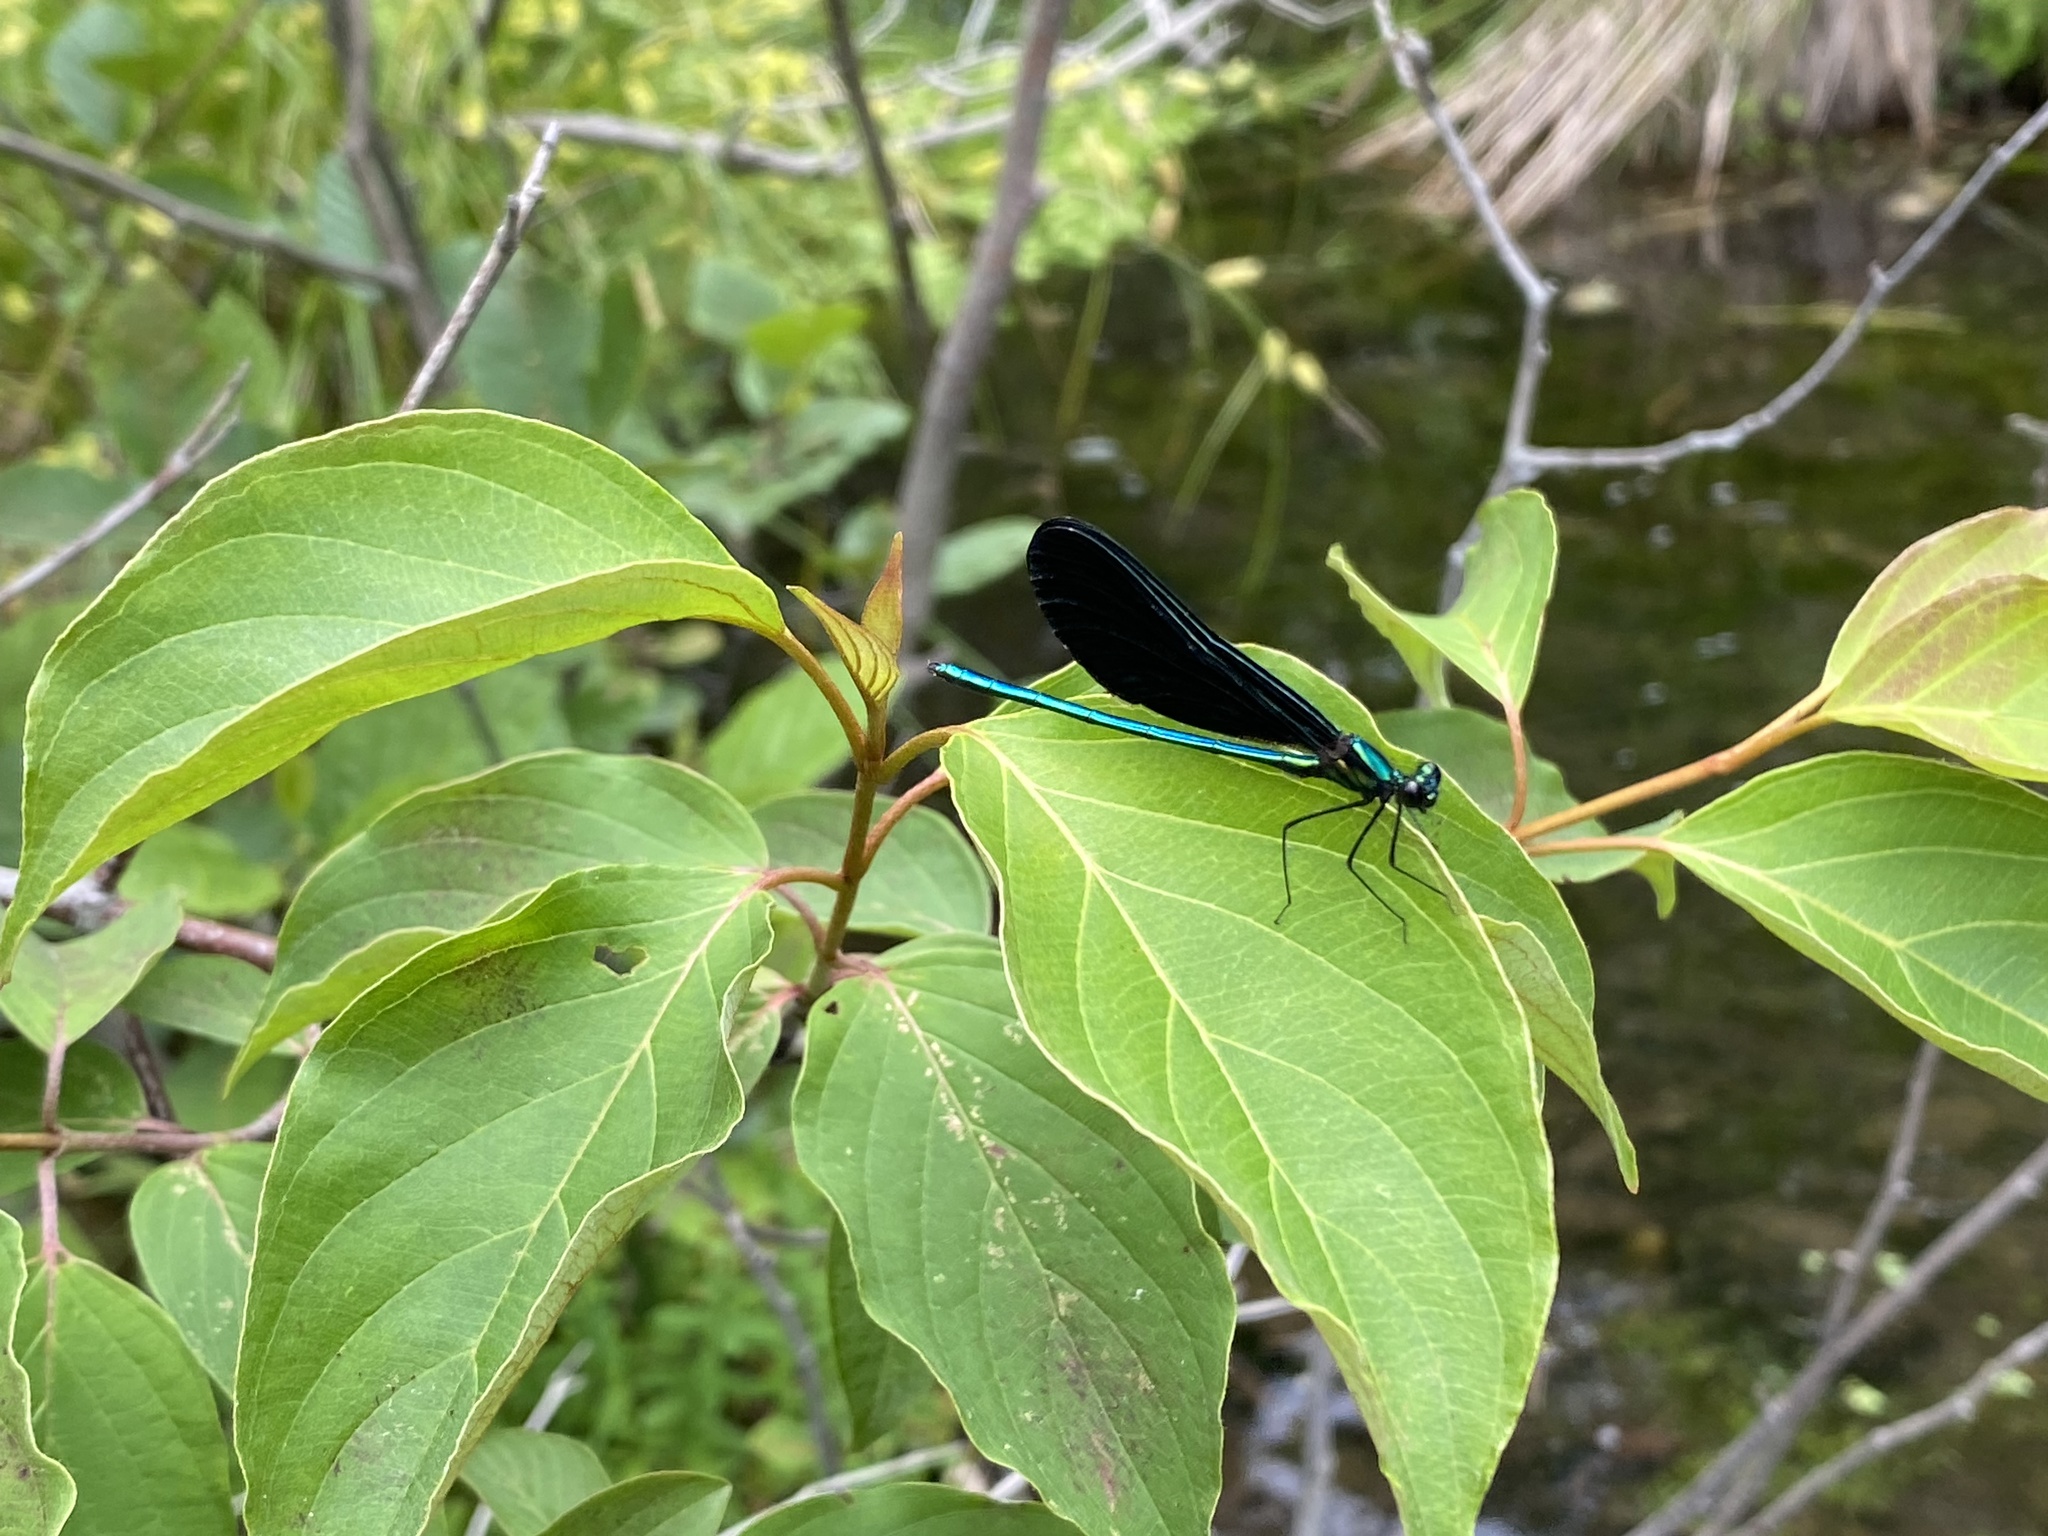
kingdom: Animalia
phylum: Arthropoda
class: Insecta
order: Odonata
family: Calopterygidae
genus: Calopteryx
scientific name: Calopteryx maculata
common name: Ebony jewelwing
